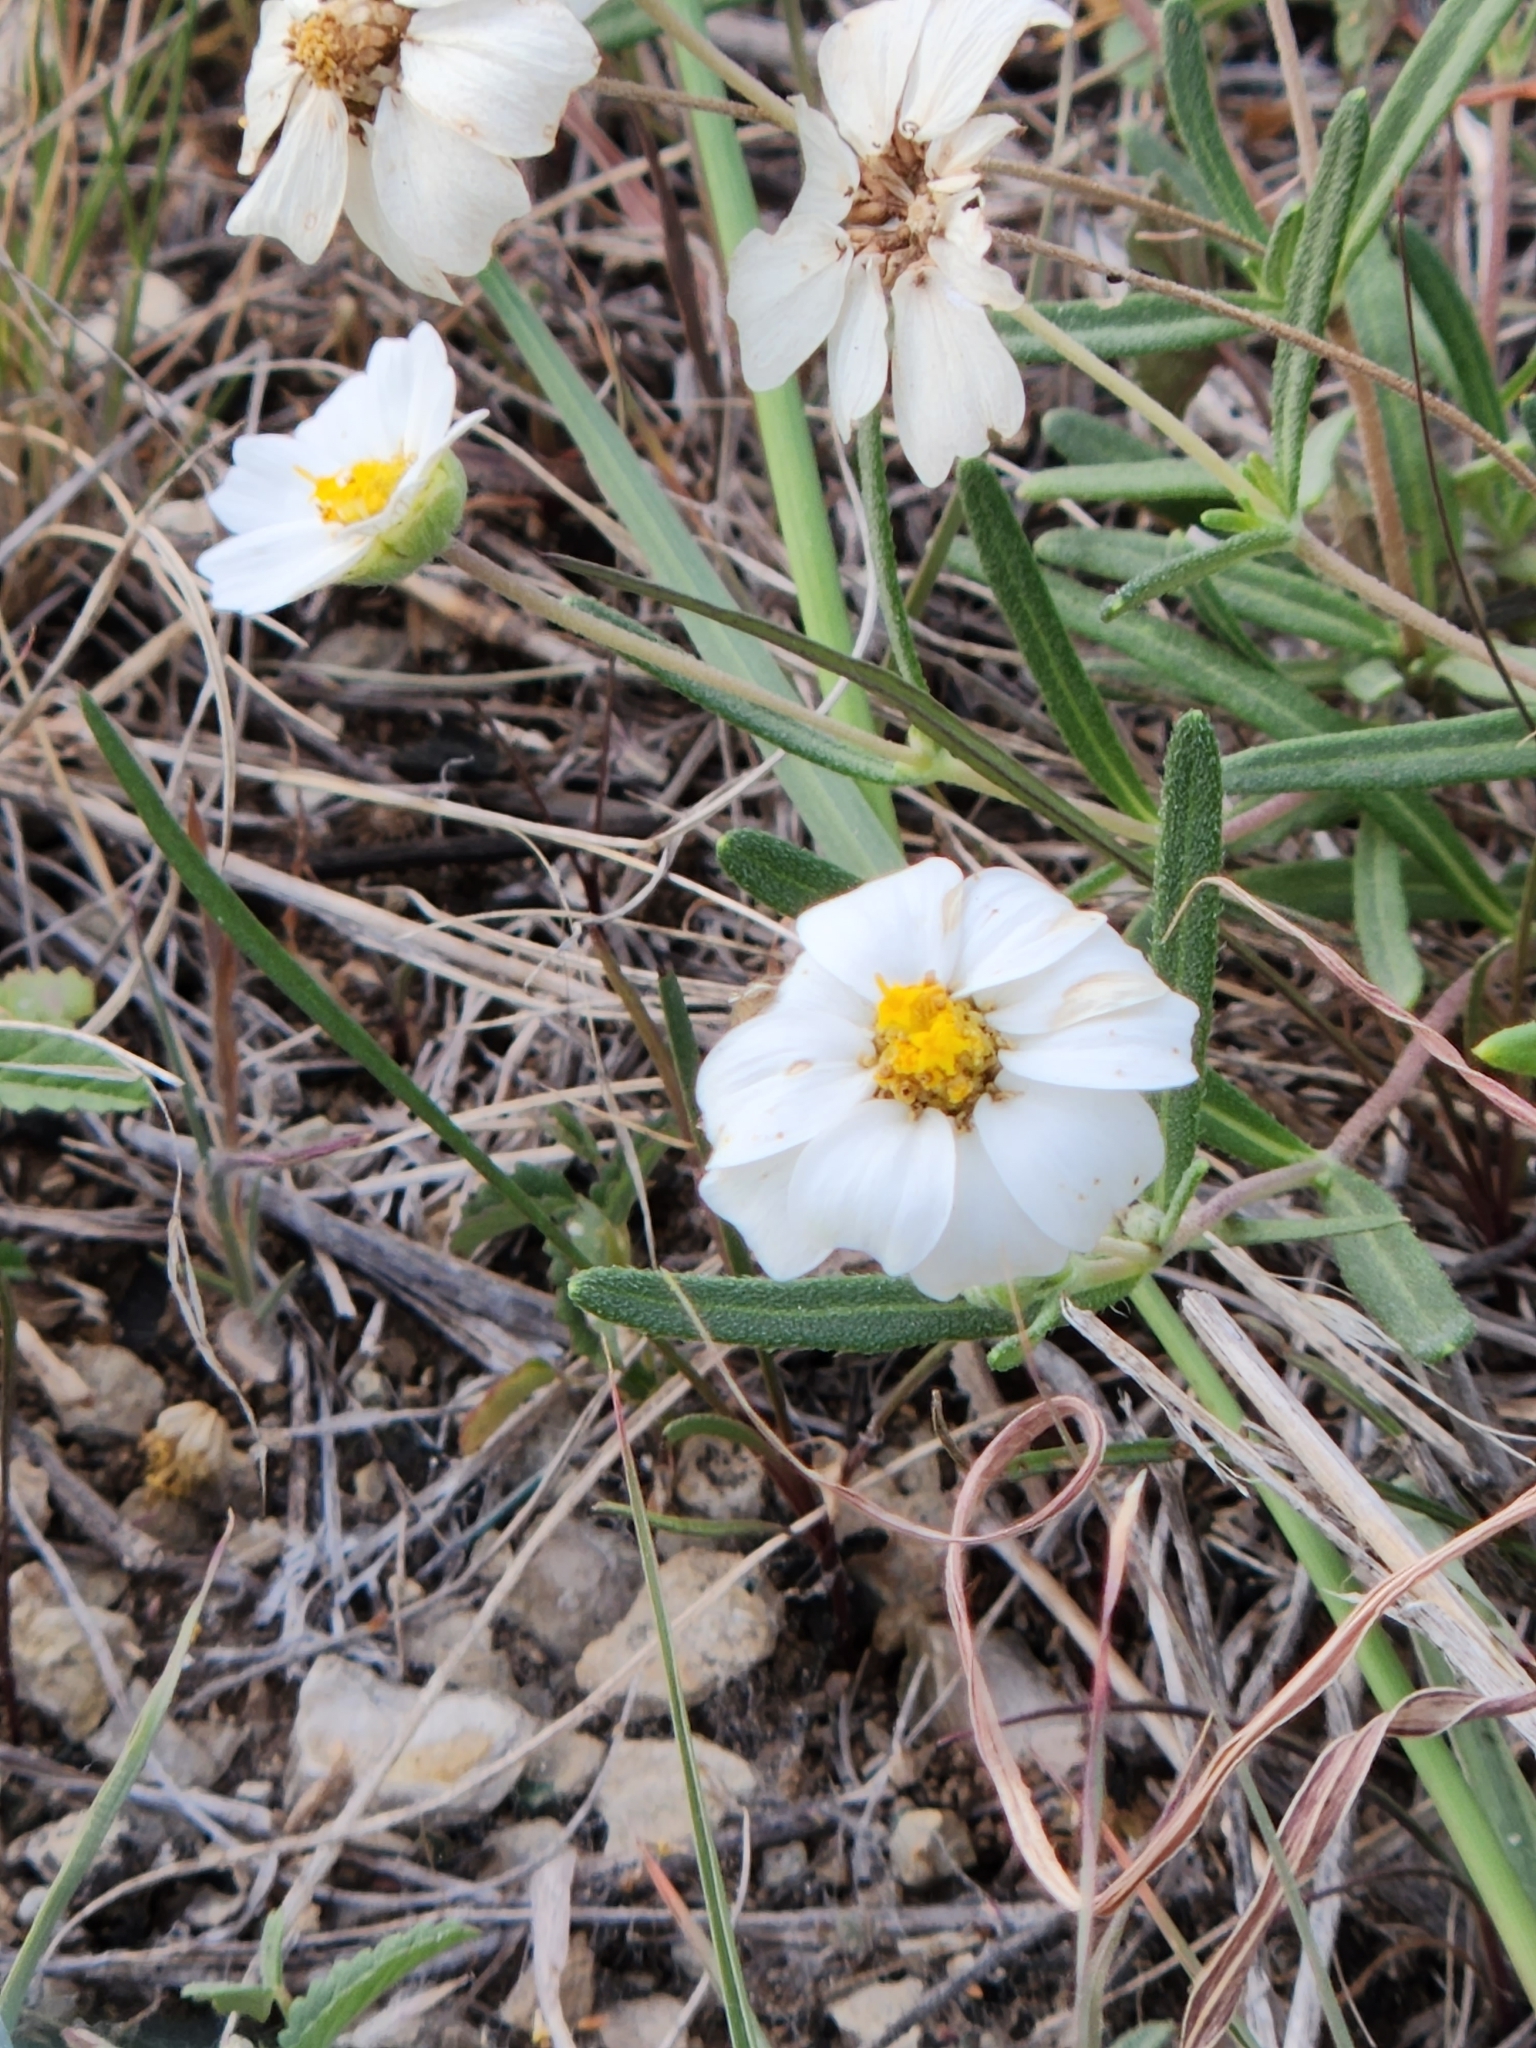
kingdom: Plantae
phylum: Tracheophyta
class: Magnoliopsida
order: Asterales
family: Asteraceae
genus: Melampodium
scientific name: Melampodium leucanthum
